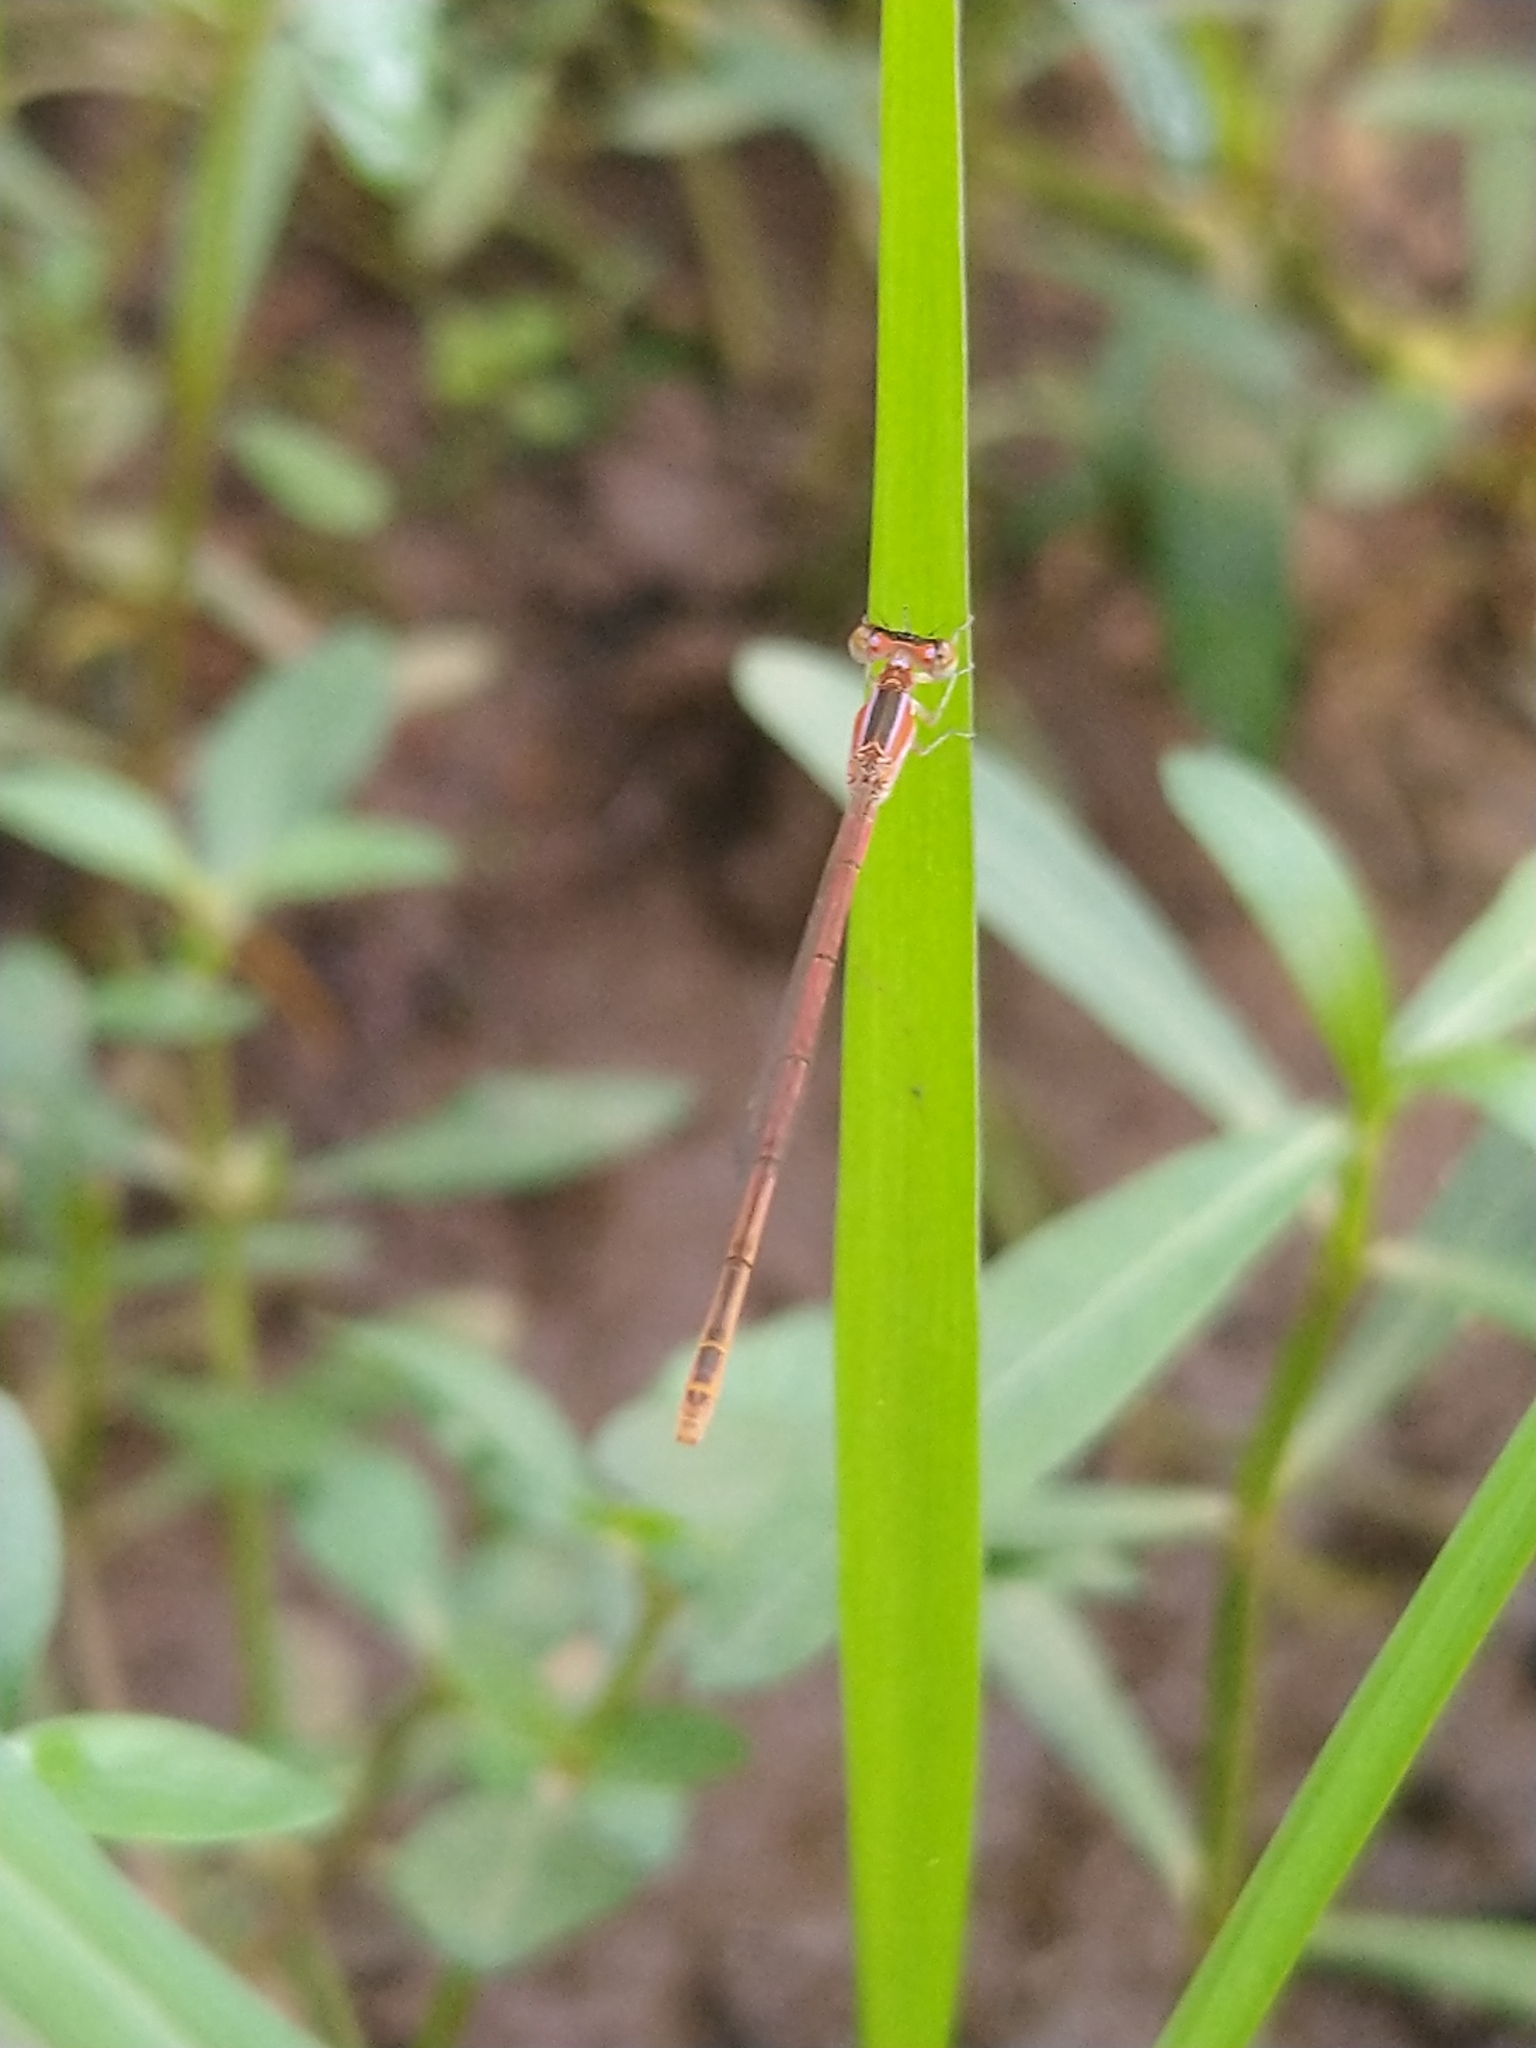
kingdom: Animalia
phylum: Arthropoda
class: Insecta
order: Odonata
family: Coenagrionidae
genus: Agriocnemis
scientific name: Agriocnemis pygmaea
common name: Pygmy wisp
